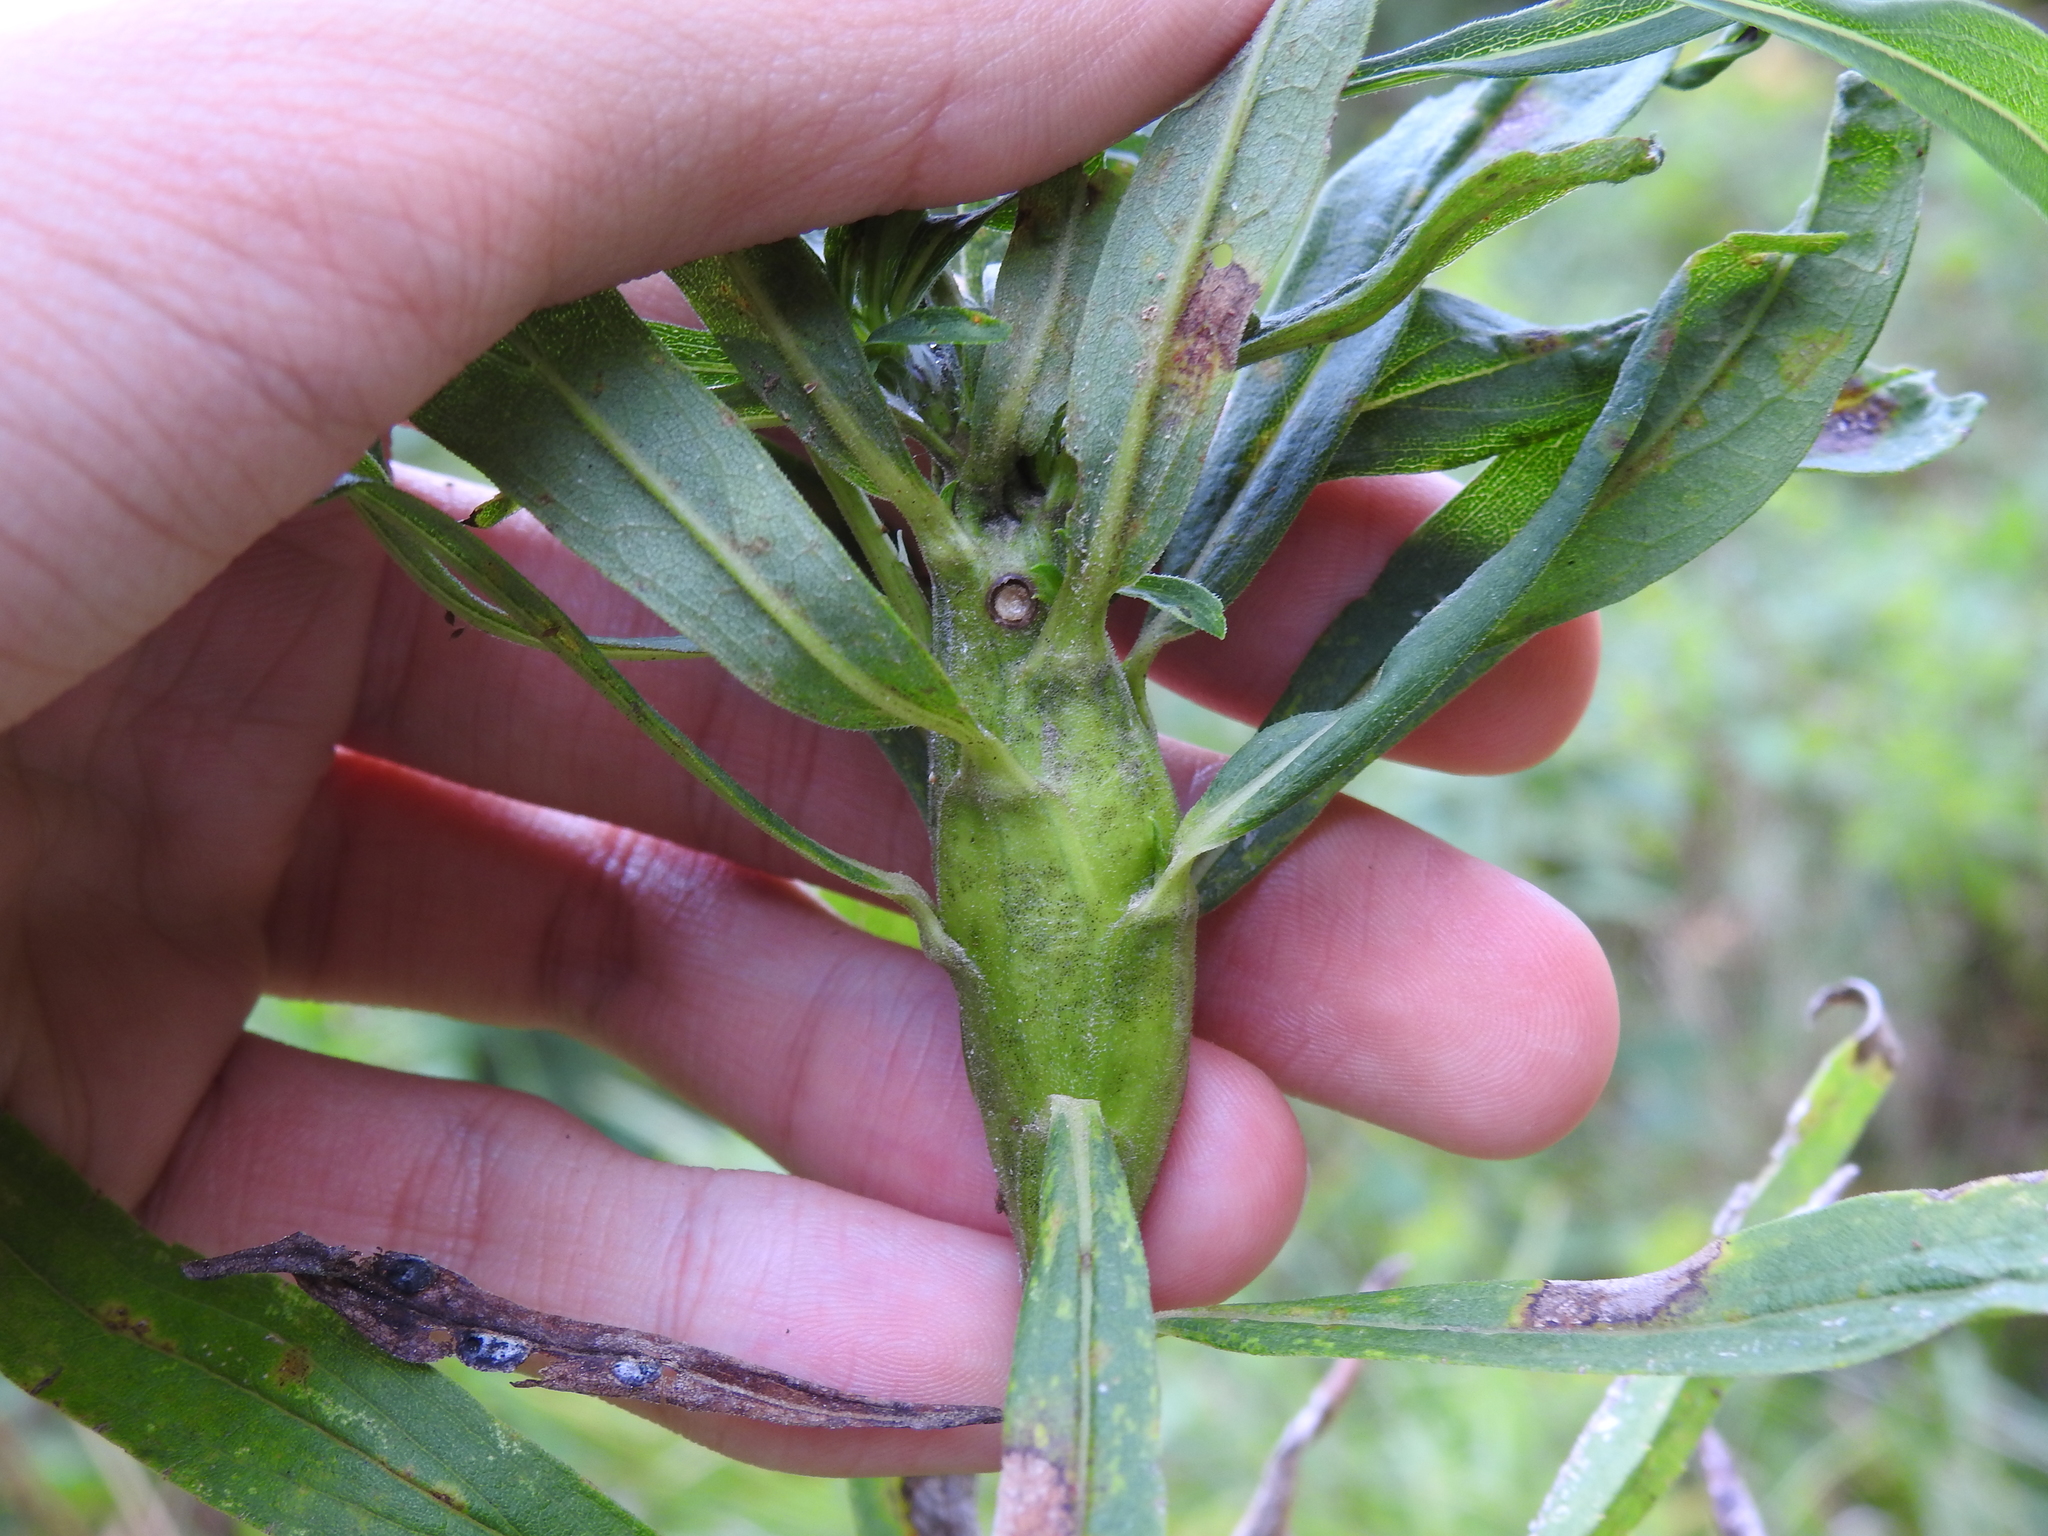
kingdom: Animalia
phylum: Arthropoda
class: Insecta
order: Lepidoptera
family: Gelechiidae
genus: Gnorimoschema
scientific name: Gnorimoschema gallaesolidaginis
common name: Goldenrod elliptical-gall moth
